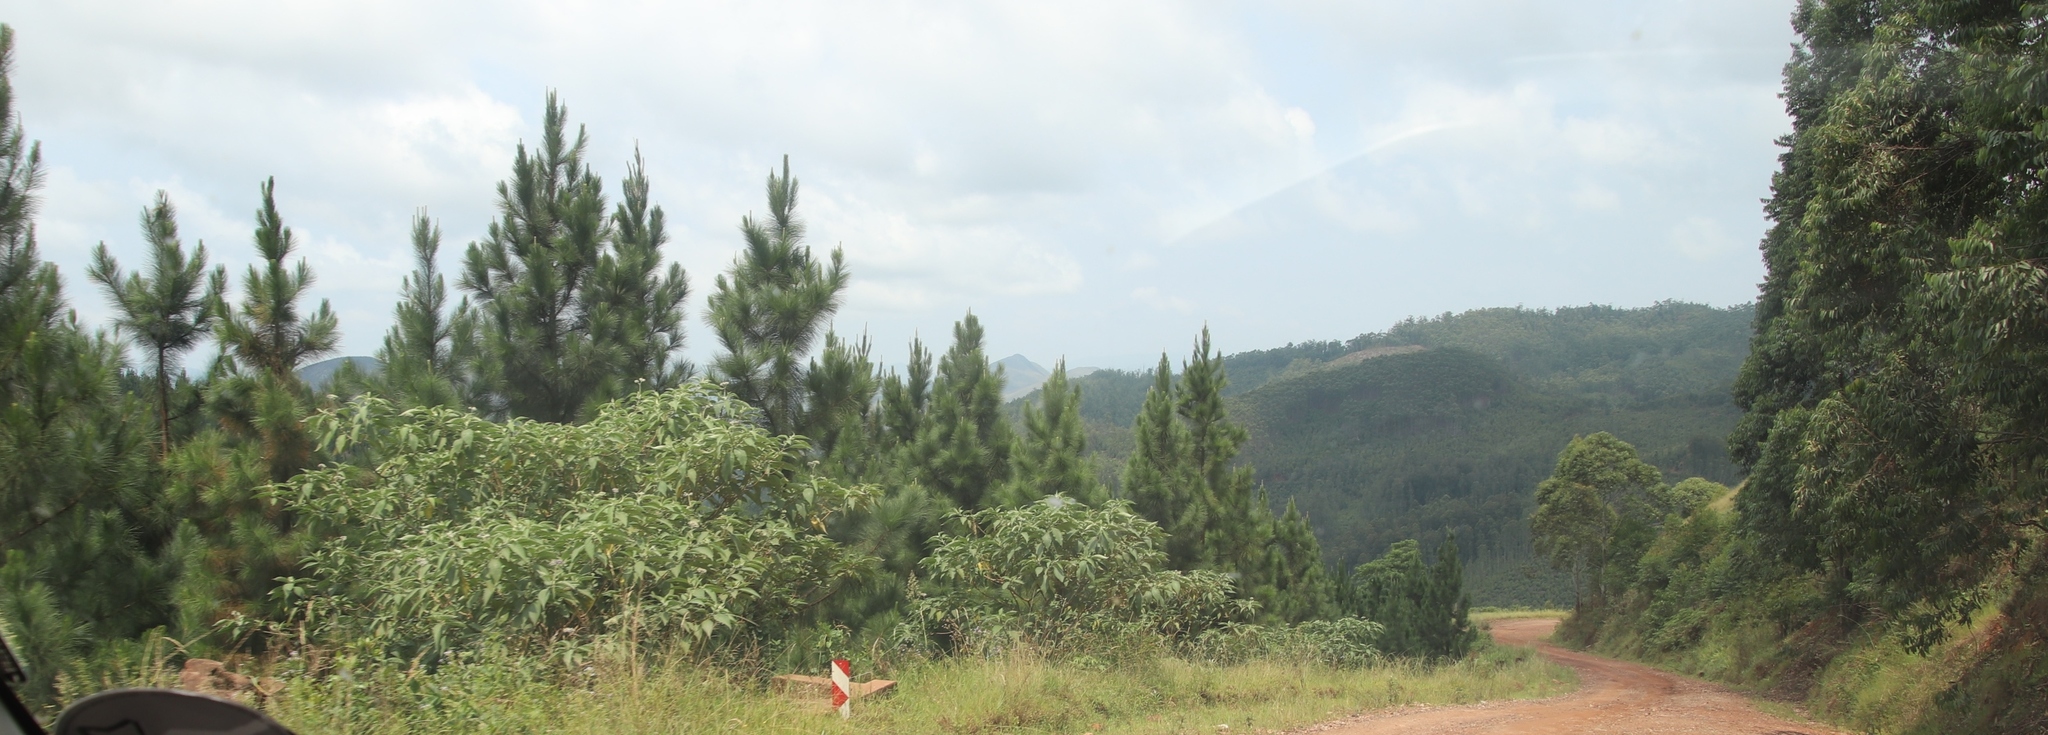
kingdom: Plantae
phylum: Tracheophyta
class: Magnoliopsida
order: Solanales
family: Solanaceae
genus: Solanum
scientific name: Solanum mauritianum
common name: Earleaf nightshade
